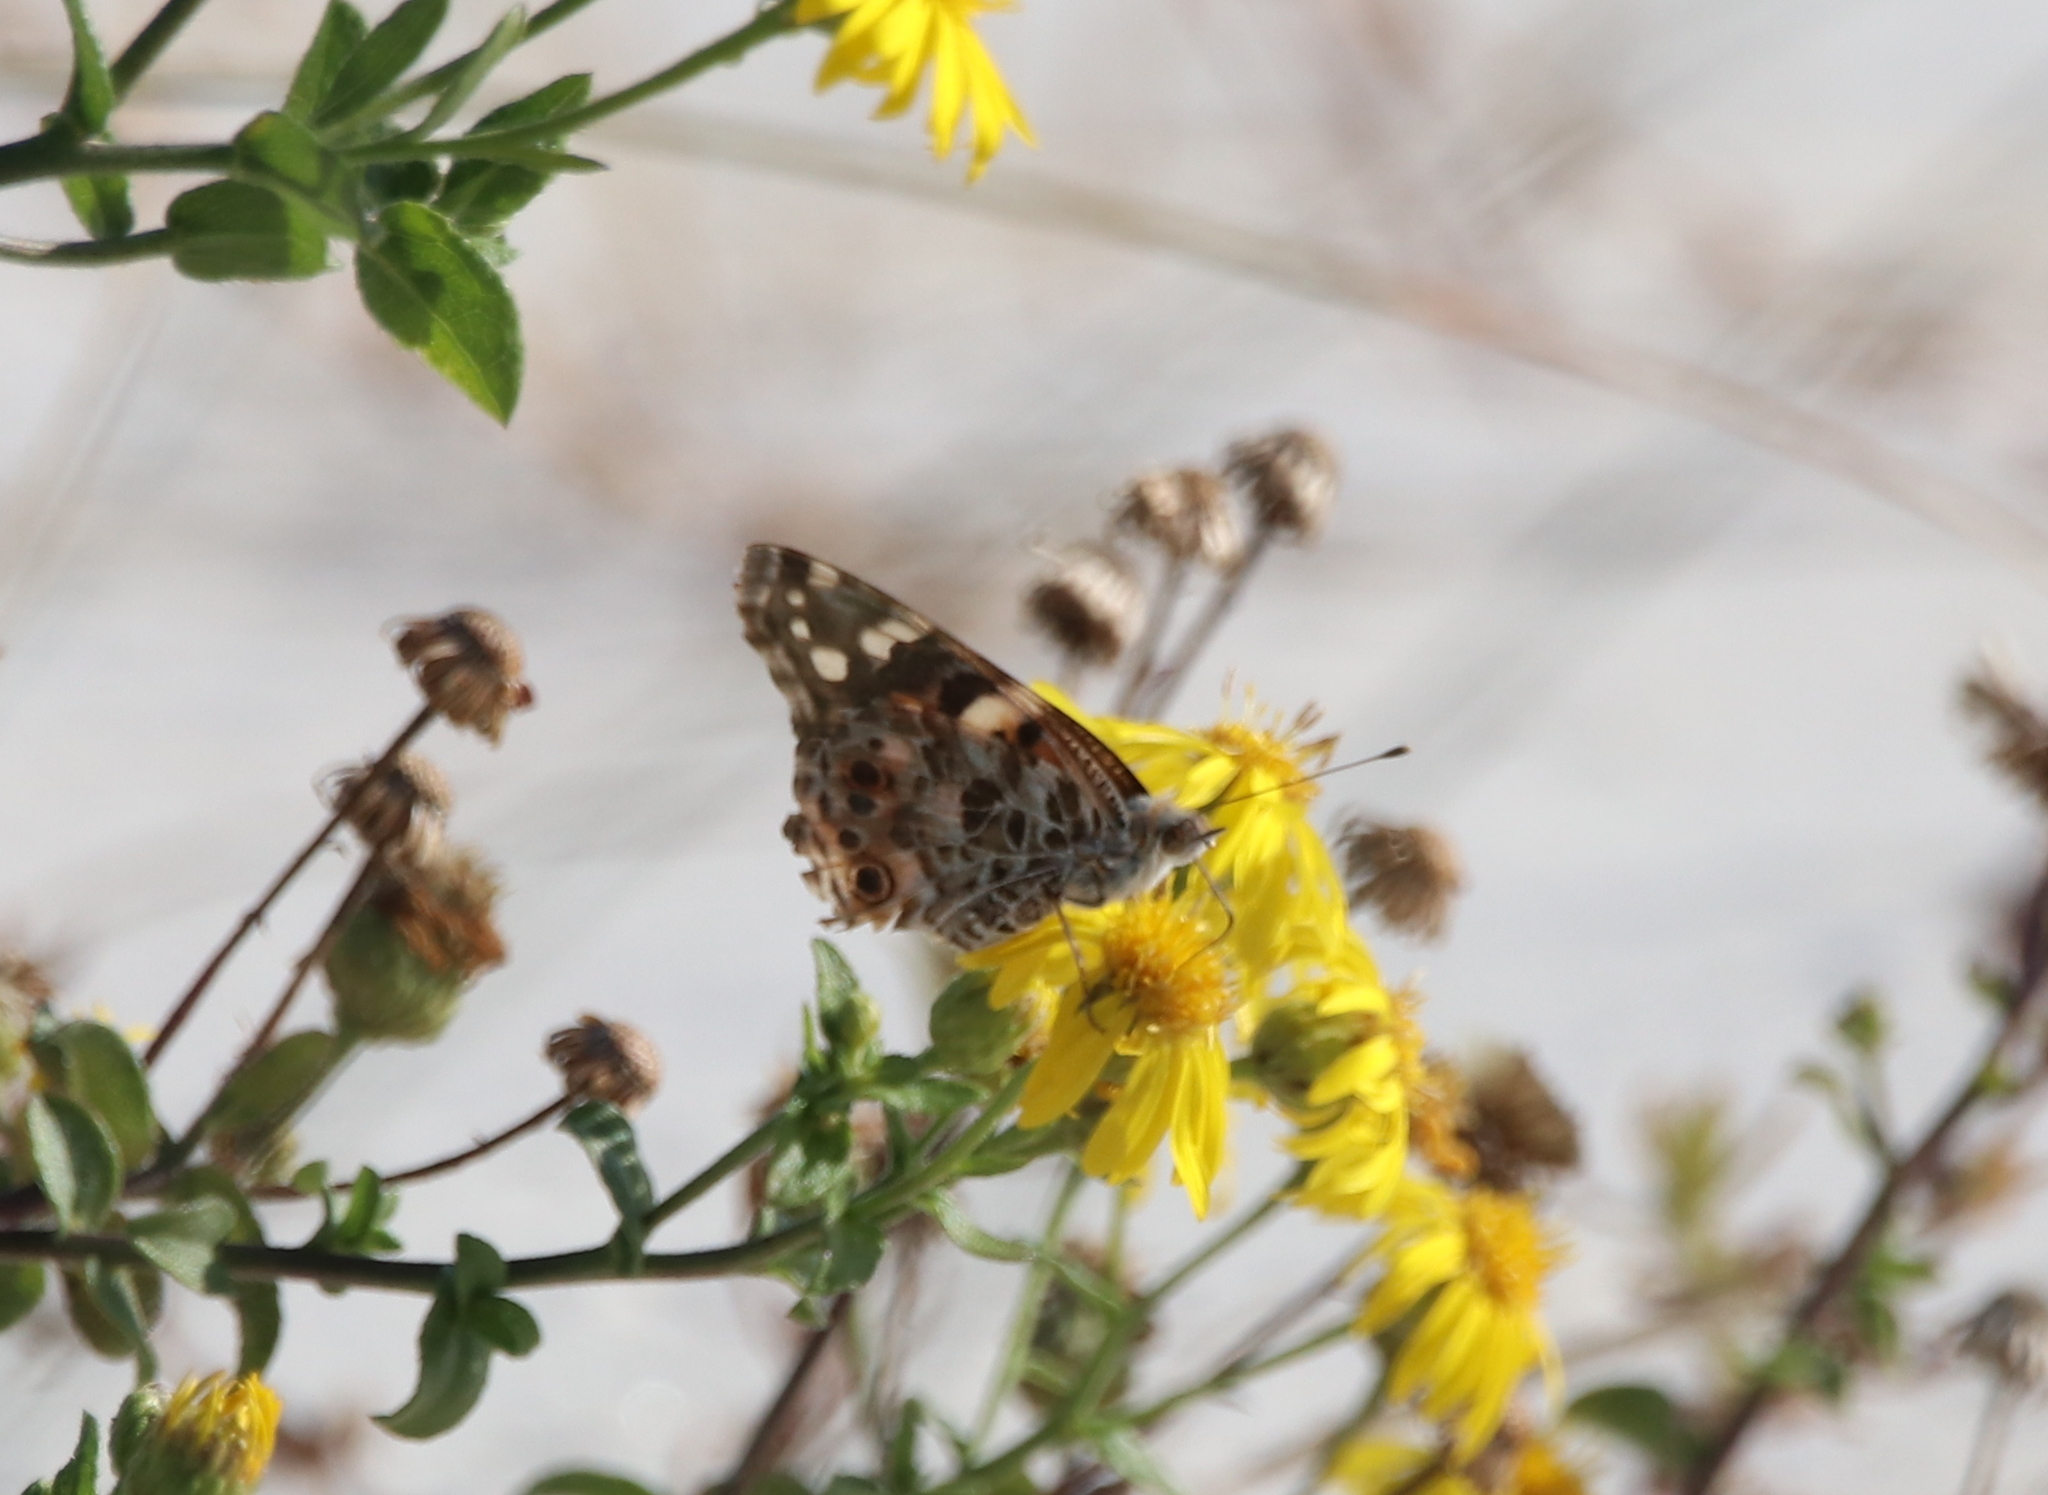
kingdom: Animalia
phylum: Arthropoda
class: Insecta
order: Lepidoptera
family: Nymphalidae
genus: Vanessa
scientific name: Vanessa cardui
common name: Painted lady
